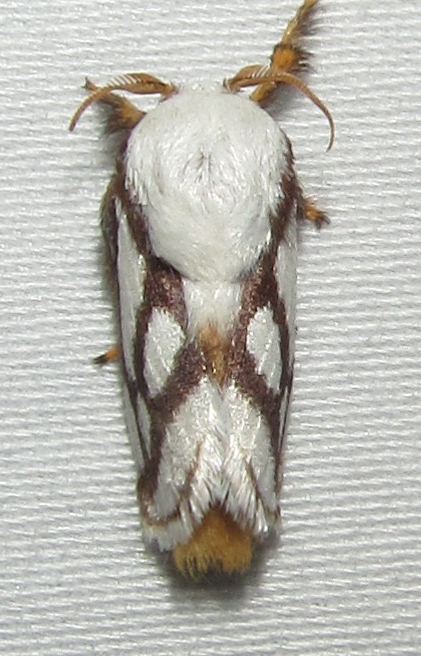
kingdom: Animalia
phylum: Arthropoda
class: Insecta
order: Lepidoptera
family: Limacodidae
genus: Parapluda
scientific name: Parapluda invitabilis
